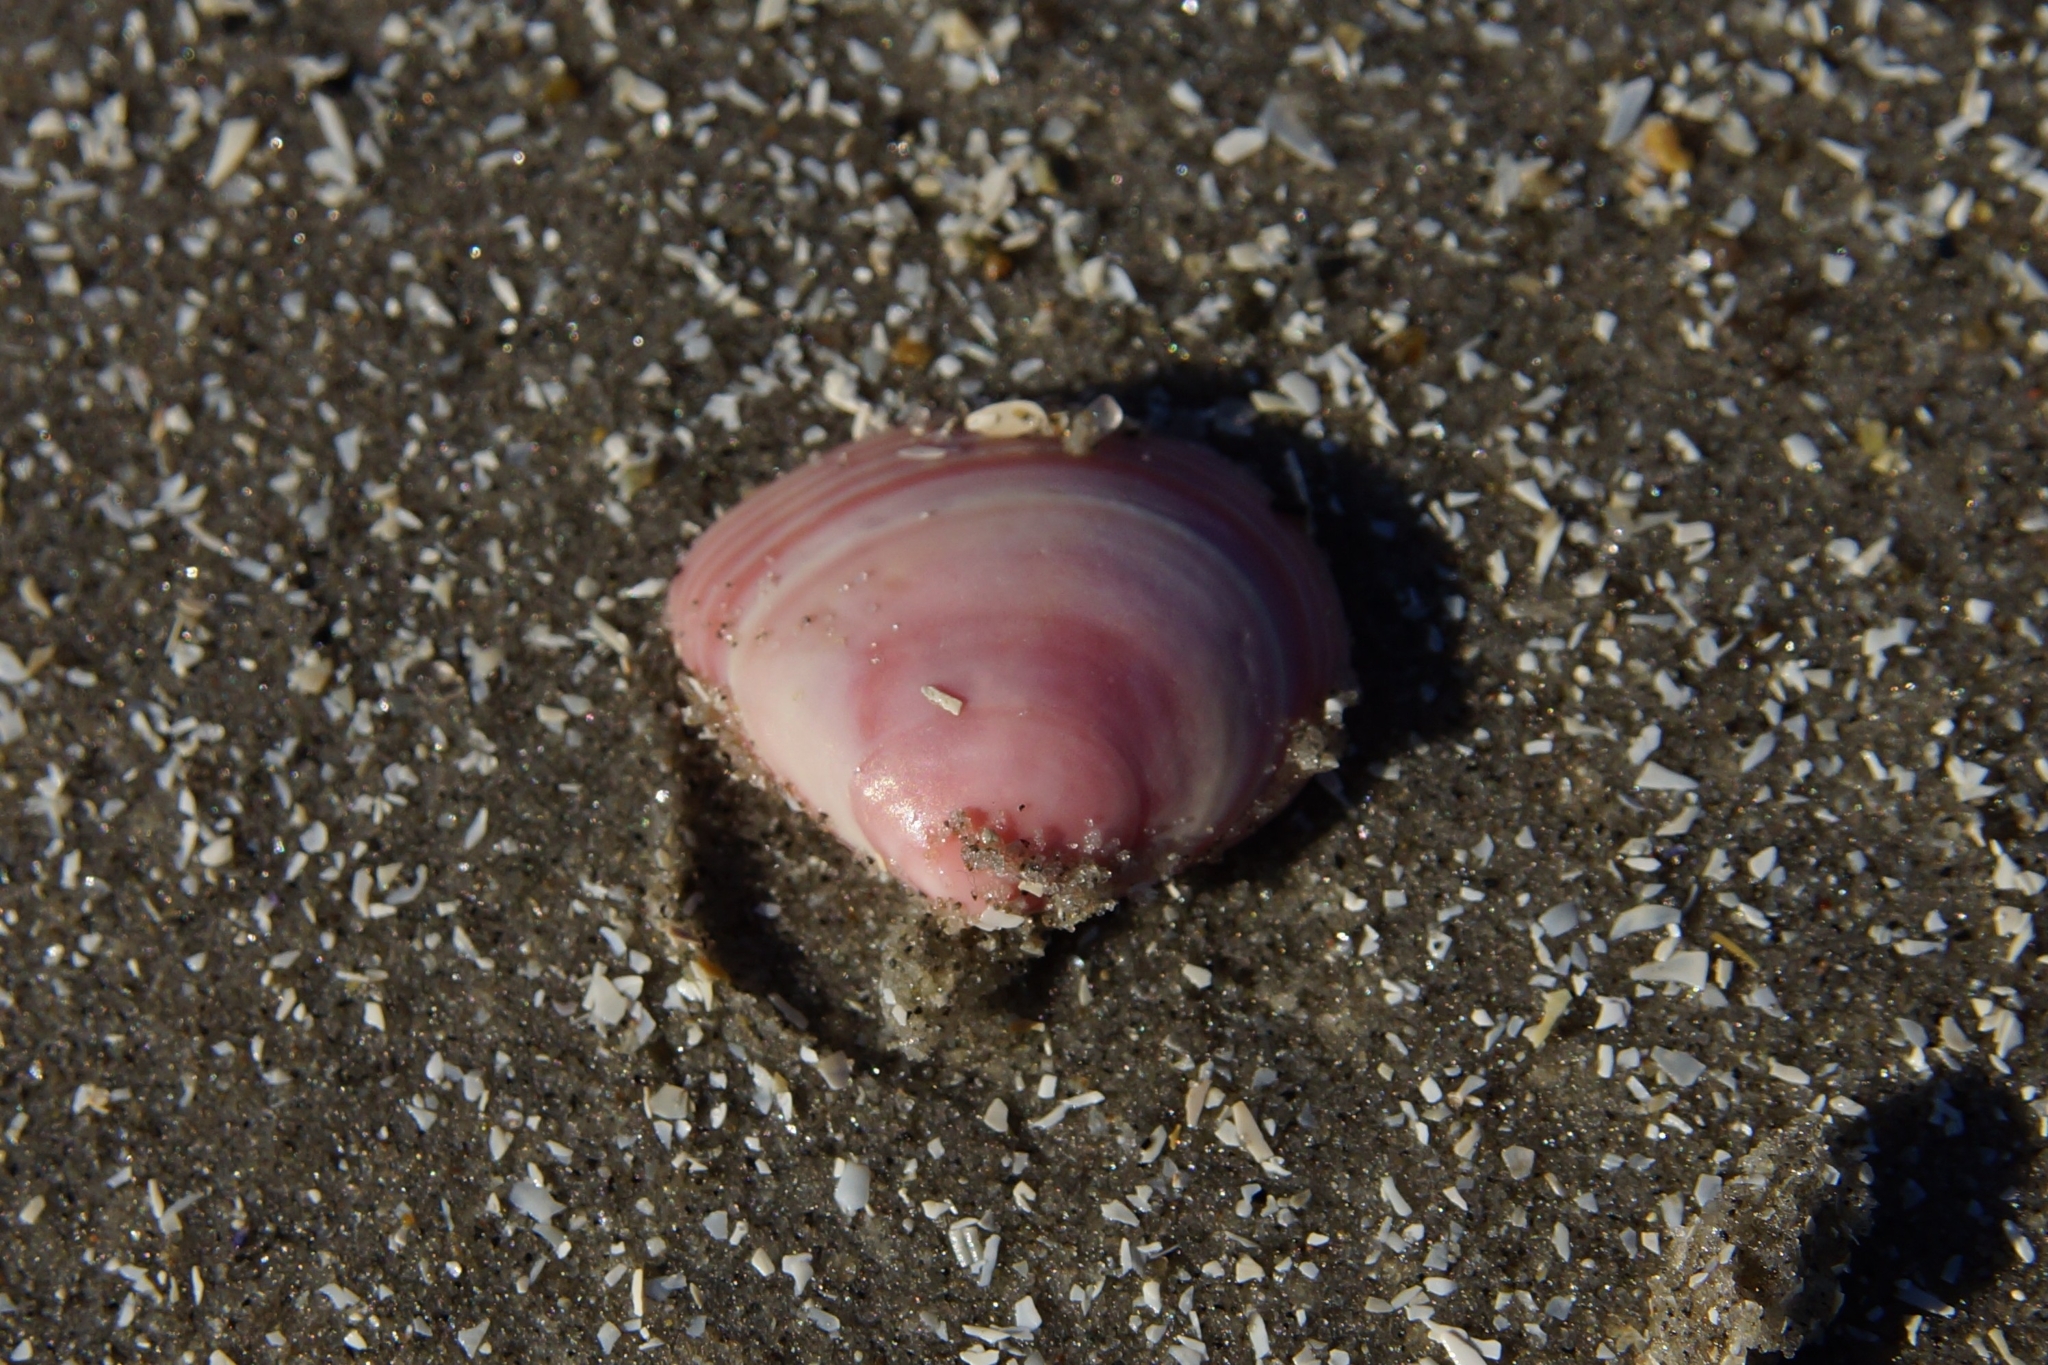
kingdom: Animalia
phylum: Mollusca
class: Bivalvia
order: Cardiida
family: Tellinidae
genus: Macoma
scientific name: Macoma balthica
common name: Baltic tellin
